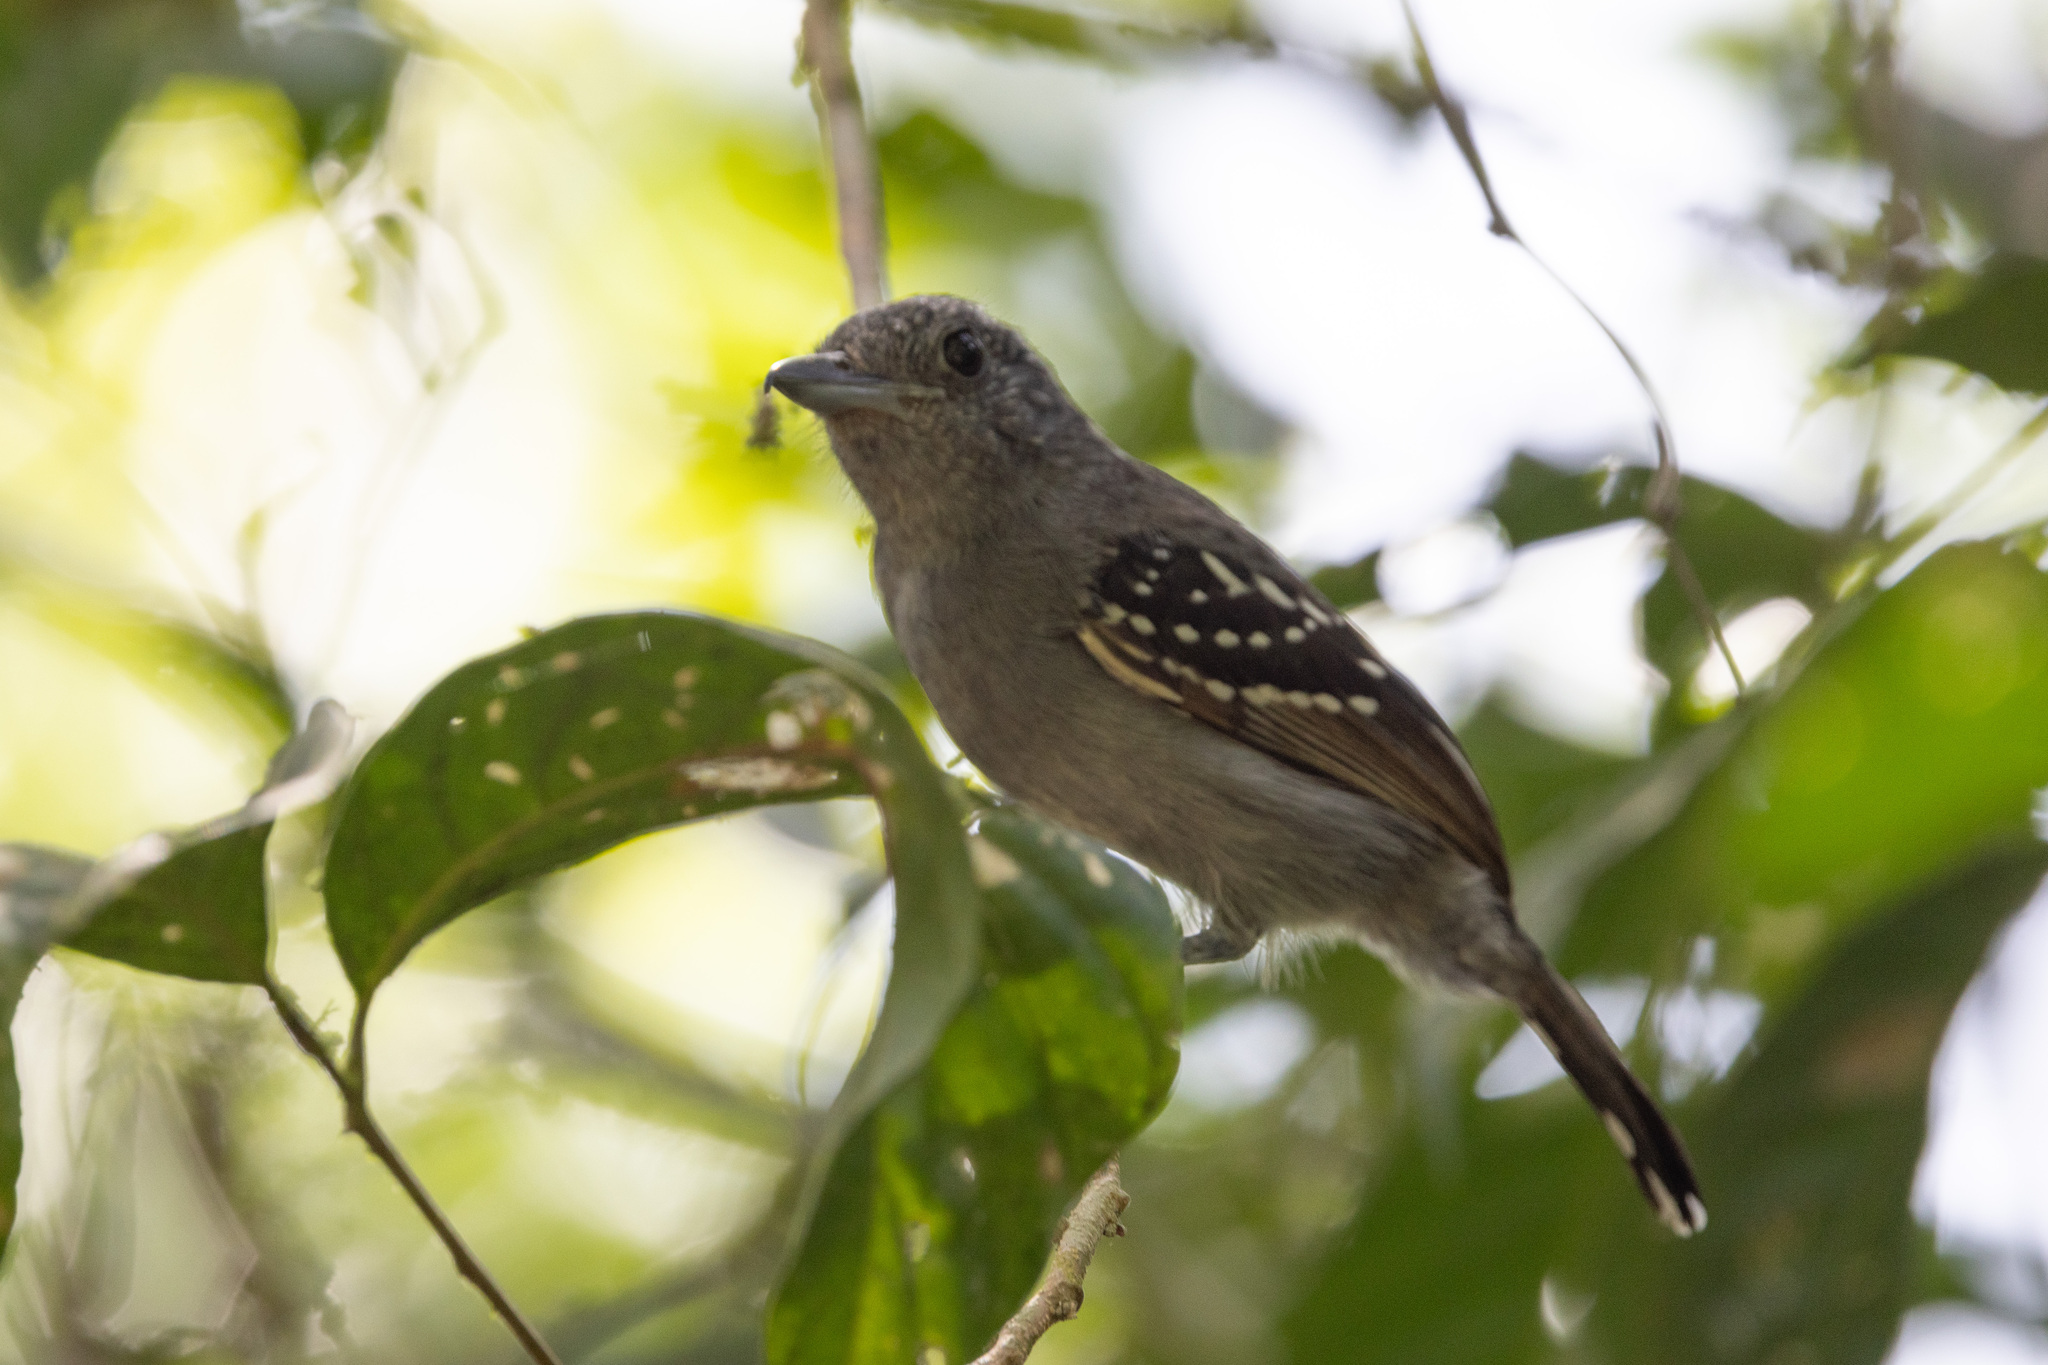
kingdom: Animalia
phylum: Chordata
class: Aves
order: Passeriformes
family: Thamnophilidae
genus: Thamnophilus
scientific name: Thamnophilus atrinucha
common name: Black-crowned antshrike
